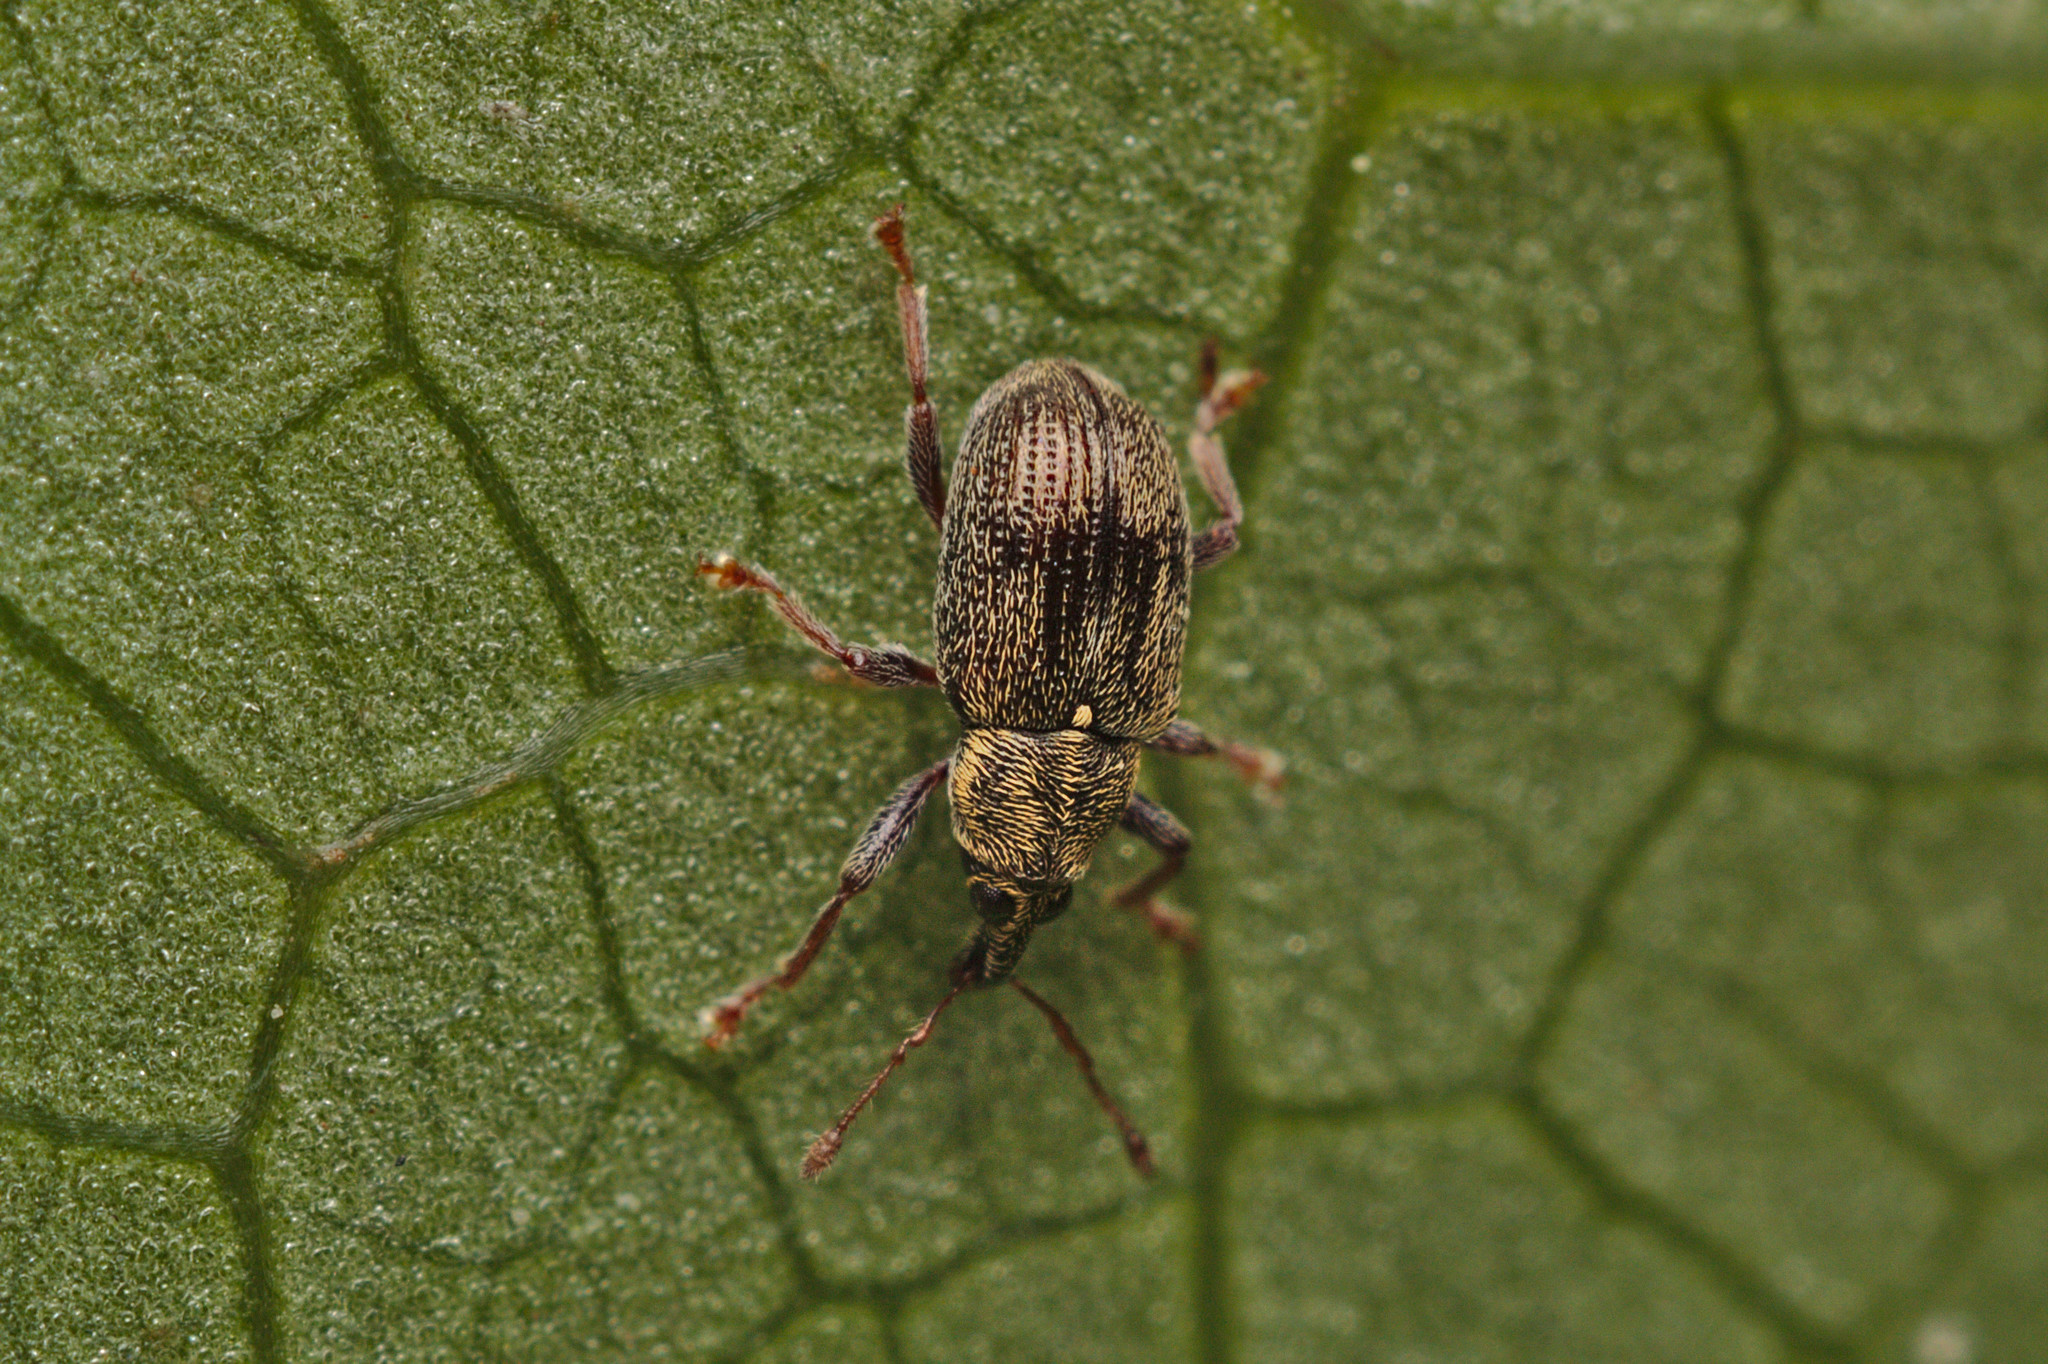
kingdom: Animalia
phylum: Arthropoda
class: Insecta
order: Coleoptera
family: Curculionidae
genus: Neomycta
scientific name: Neomycta rubida
